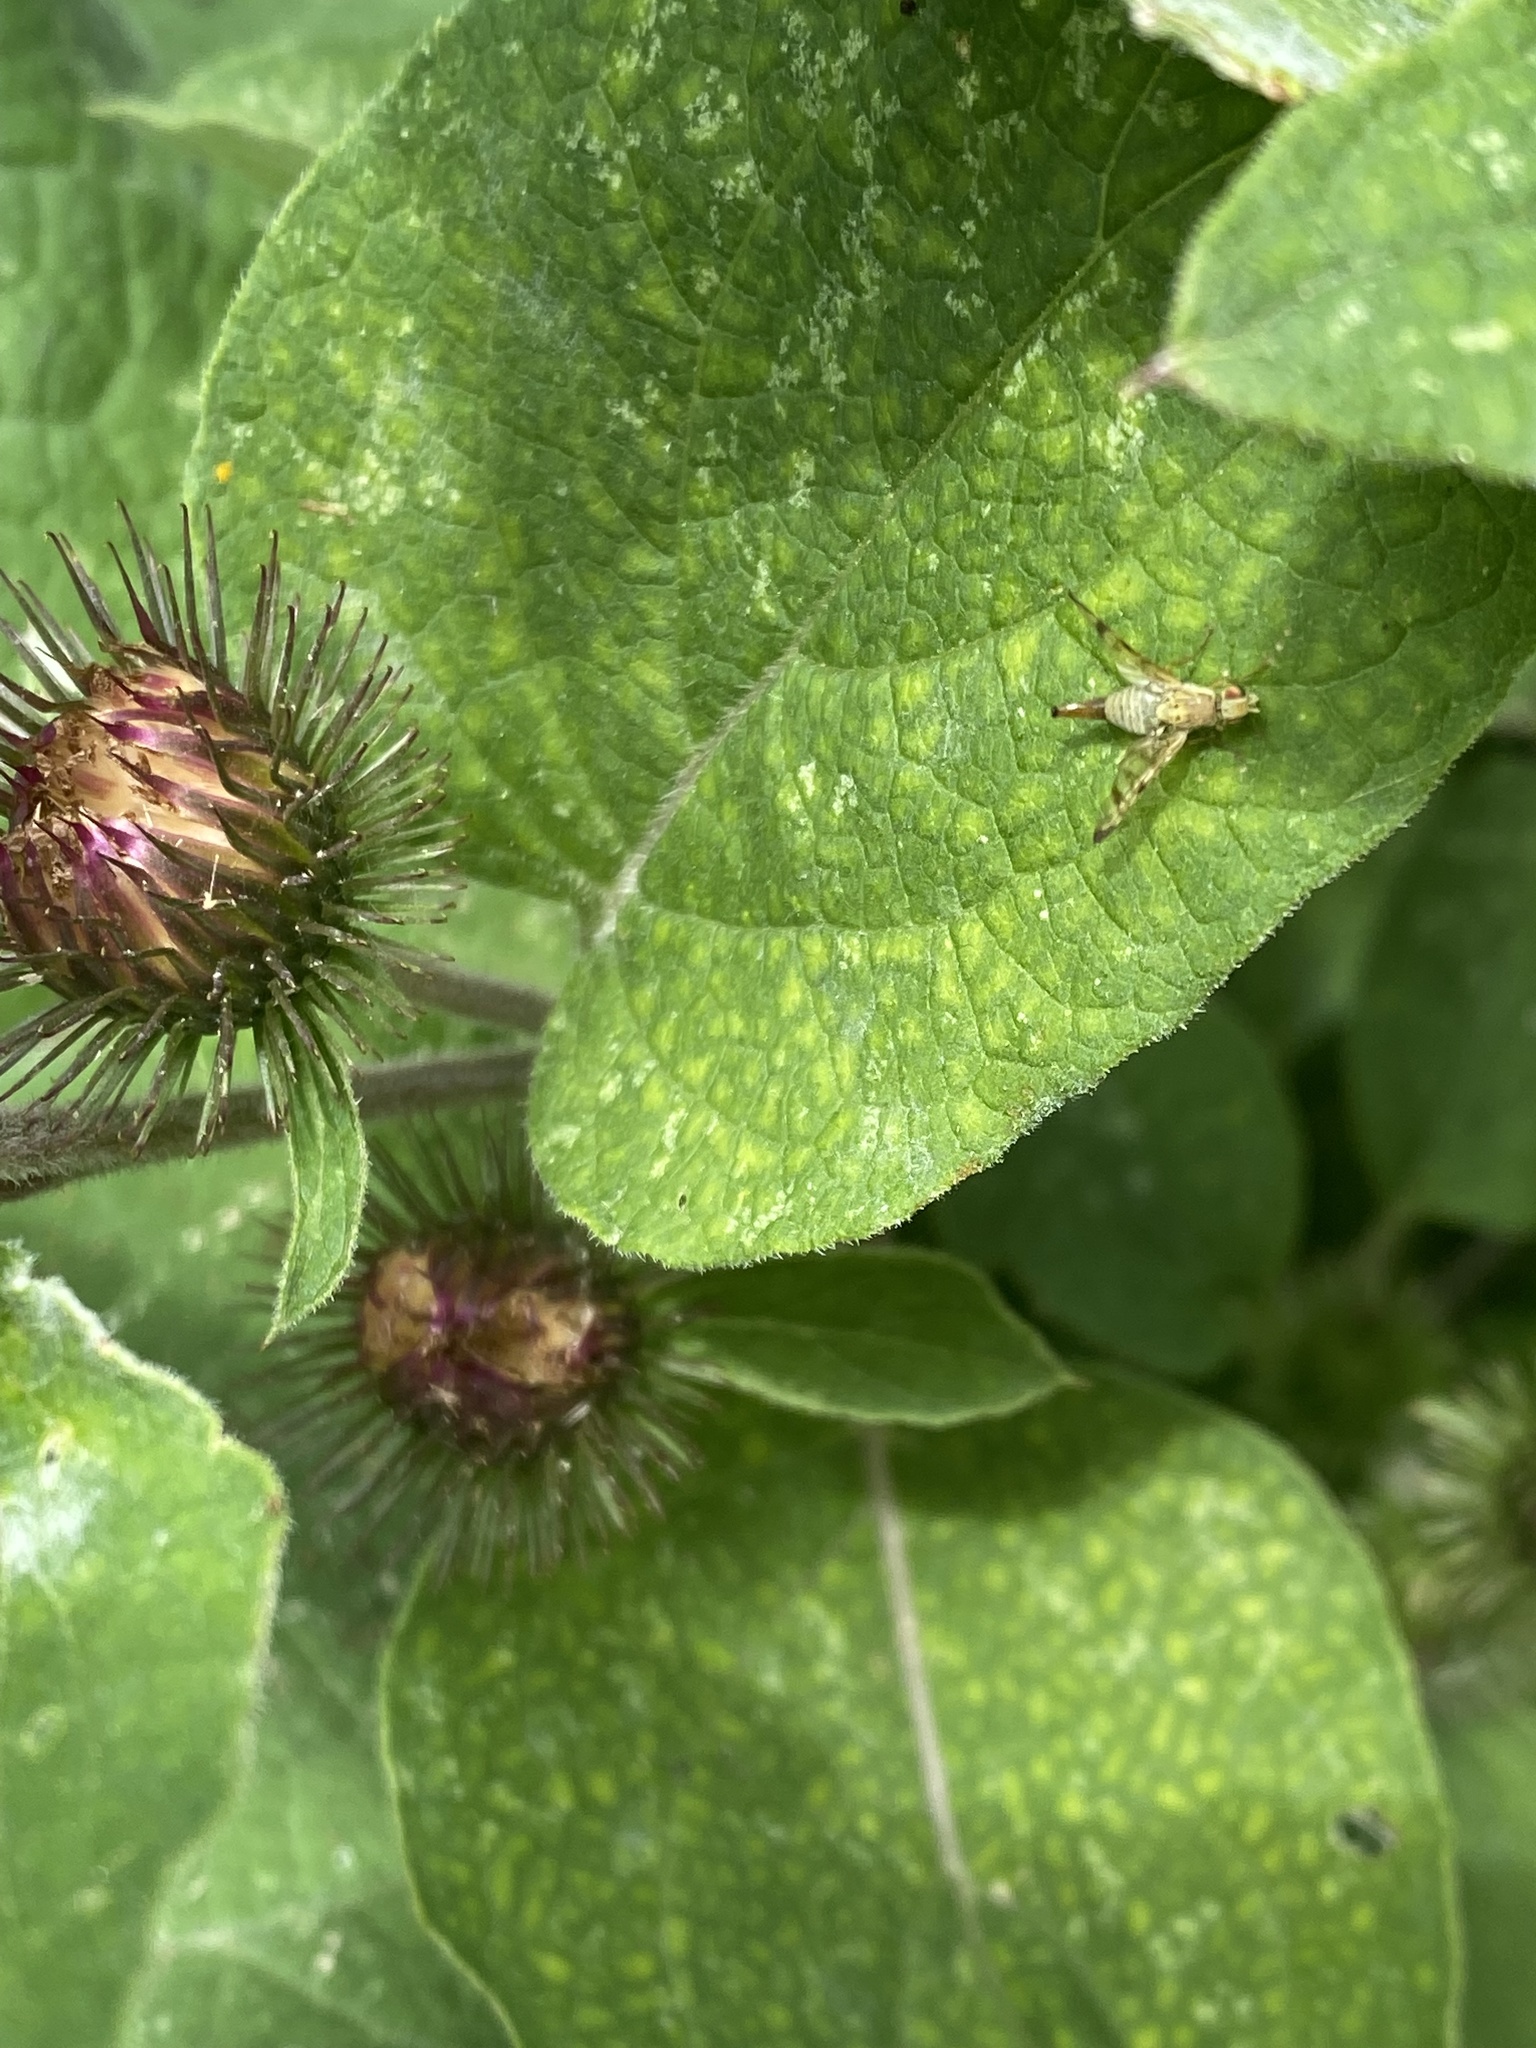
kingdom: Animalia
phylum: Arthropoda
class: Insecta
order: Diptera
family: Tephritidae
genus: Terellia
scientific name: Terellia tussilaginis
